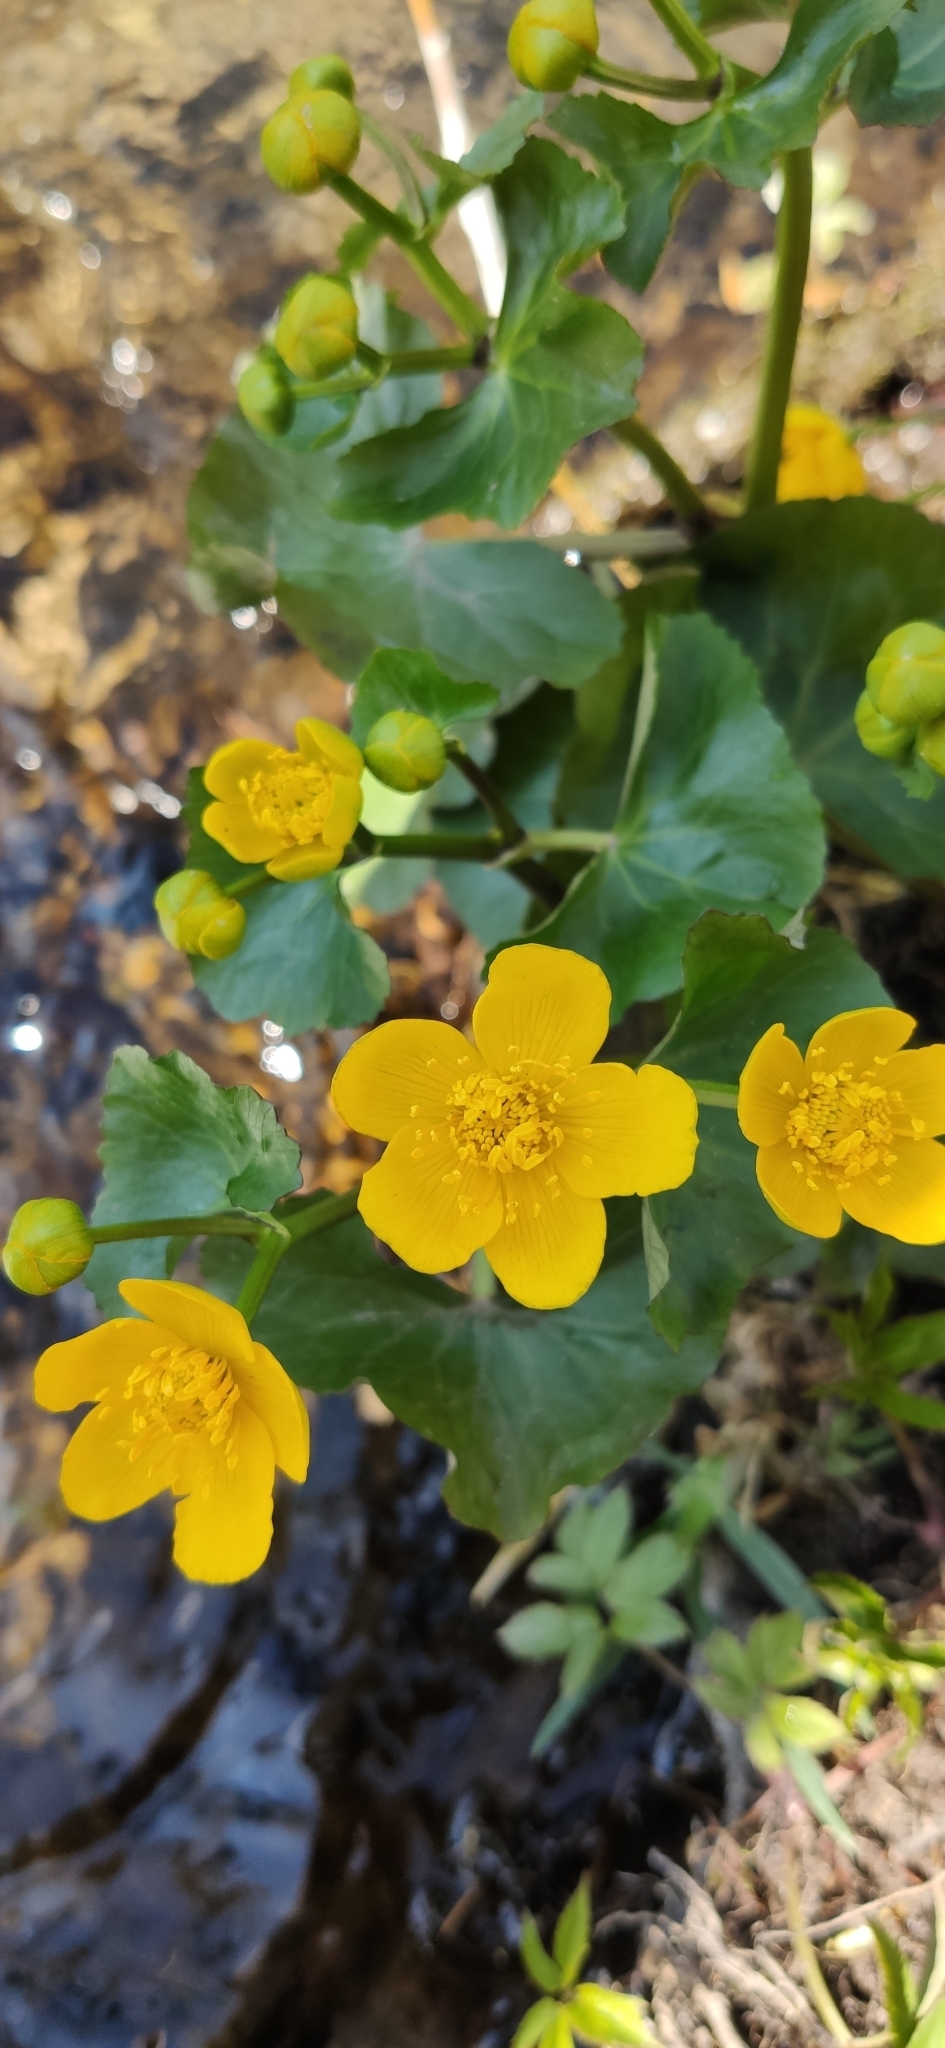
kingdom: Plantae
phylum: Tracheophyta
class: Magnoliopsida
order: Ranunculales
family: Ranunculaceae
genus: Caltha
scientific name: Caltha palustris
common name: Marsh marigold
